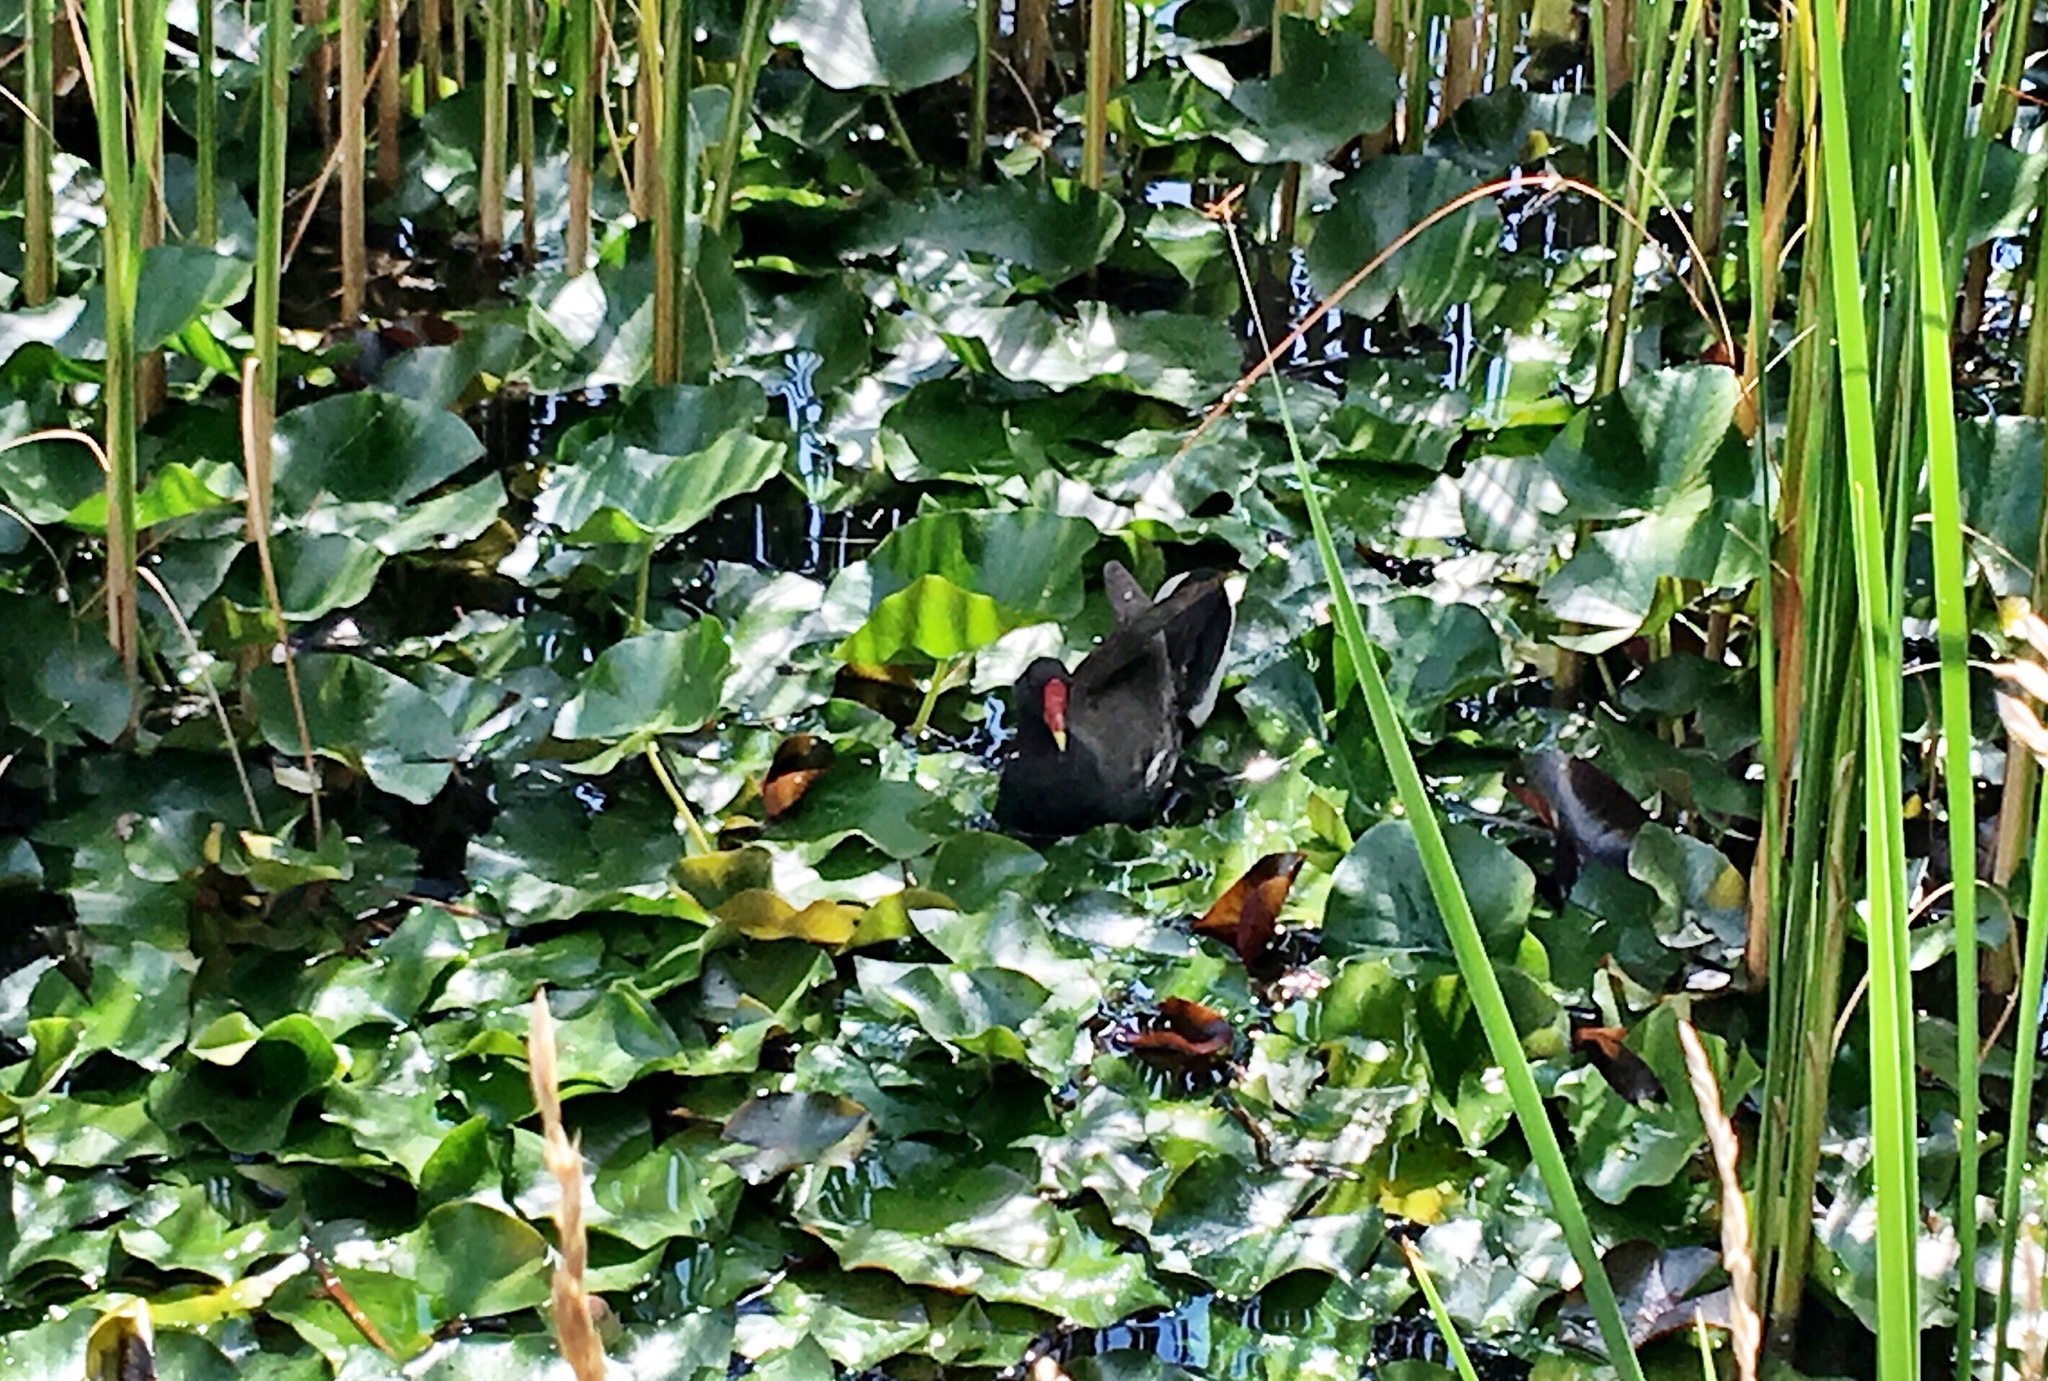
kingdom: Animalia
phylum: Chordata
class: Aves
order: Gruiformes
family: Rallidae
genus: Gallinula
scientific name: Gallinula chloropus
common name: Common moorhen
